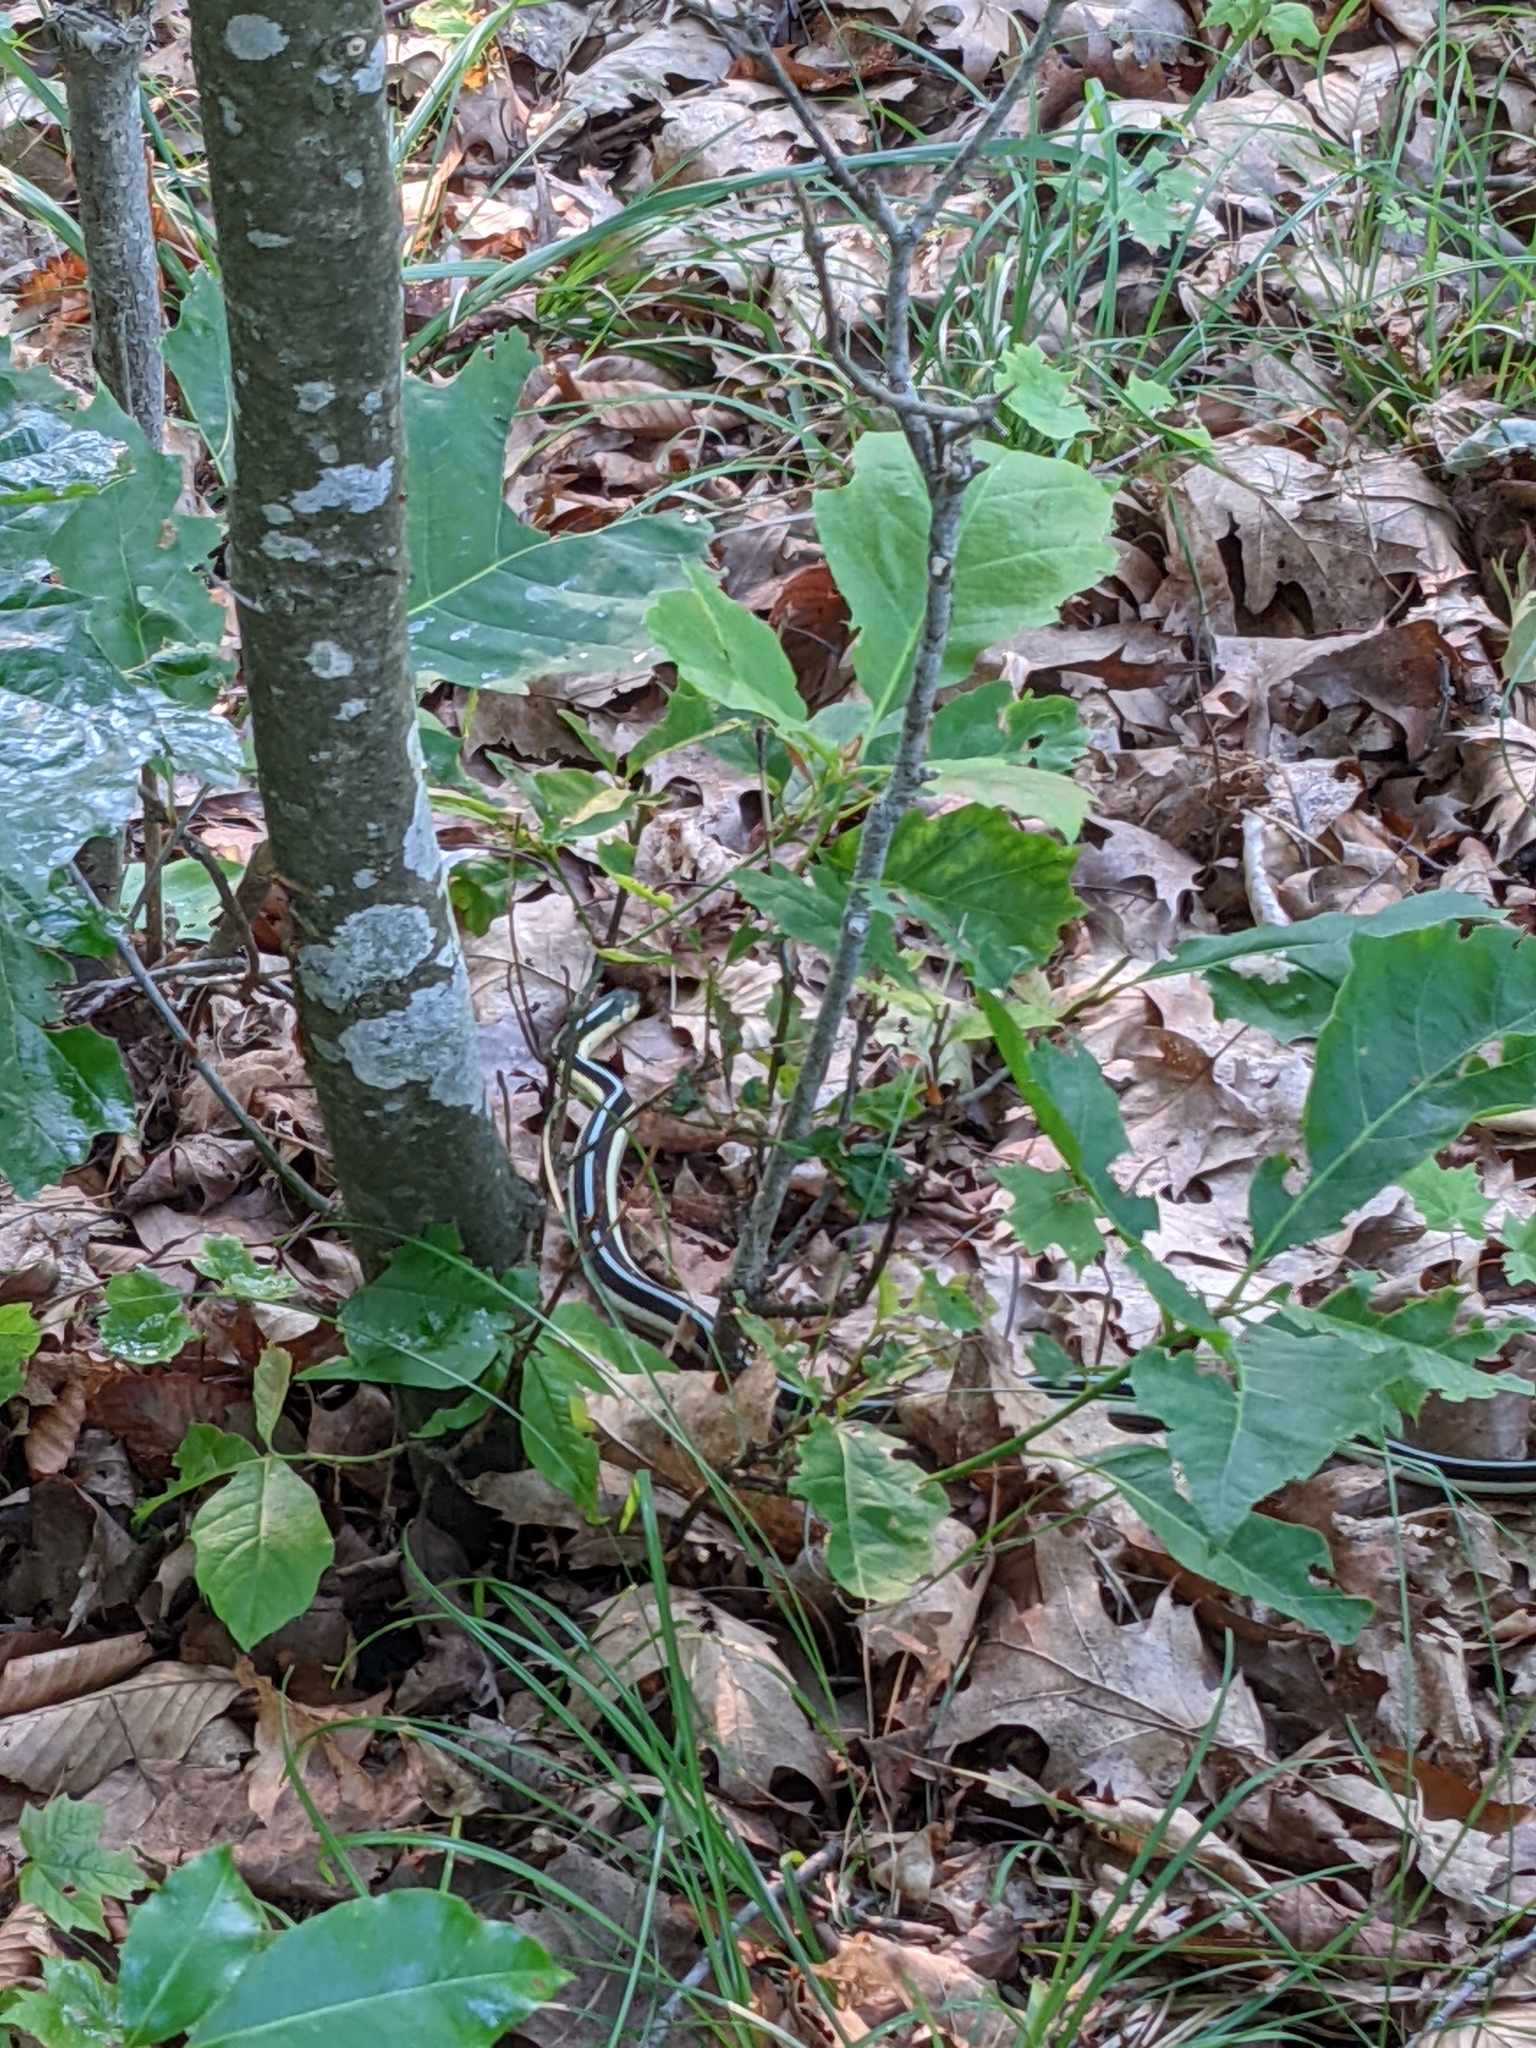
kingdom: Animalia
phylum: Chordata
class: Squamata
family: Colubridae
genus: Thamnophis
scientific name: Thamnophis sirtalis
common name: Common garter snake
